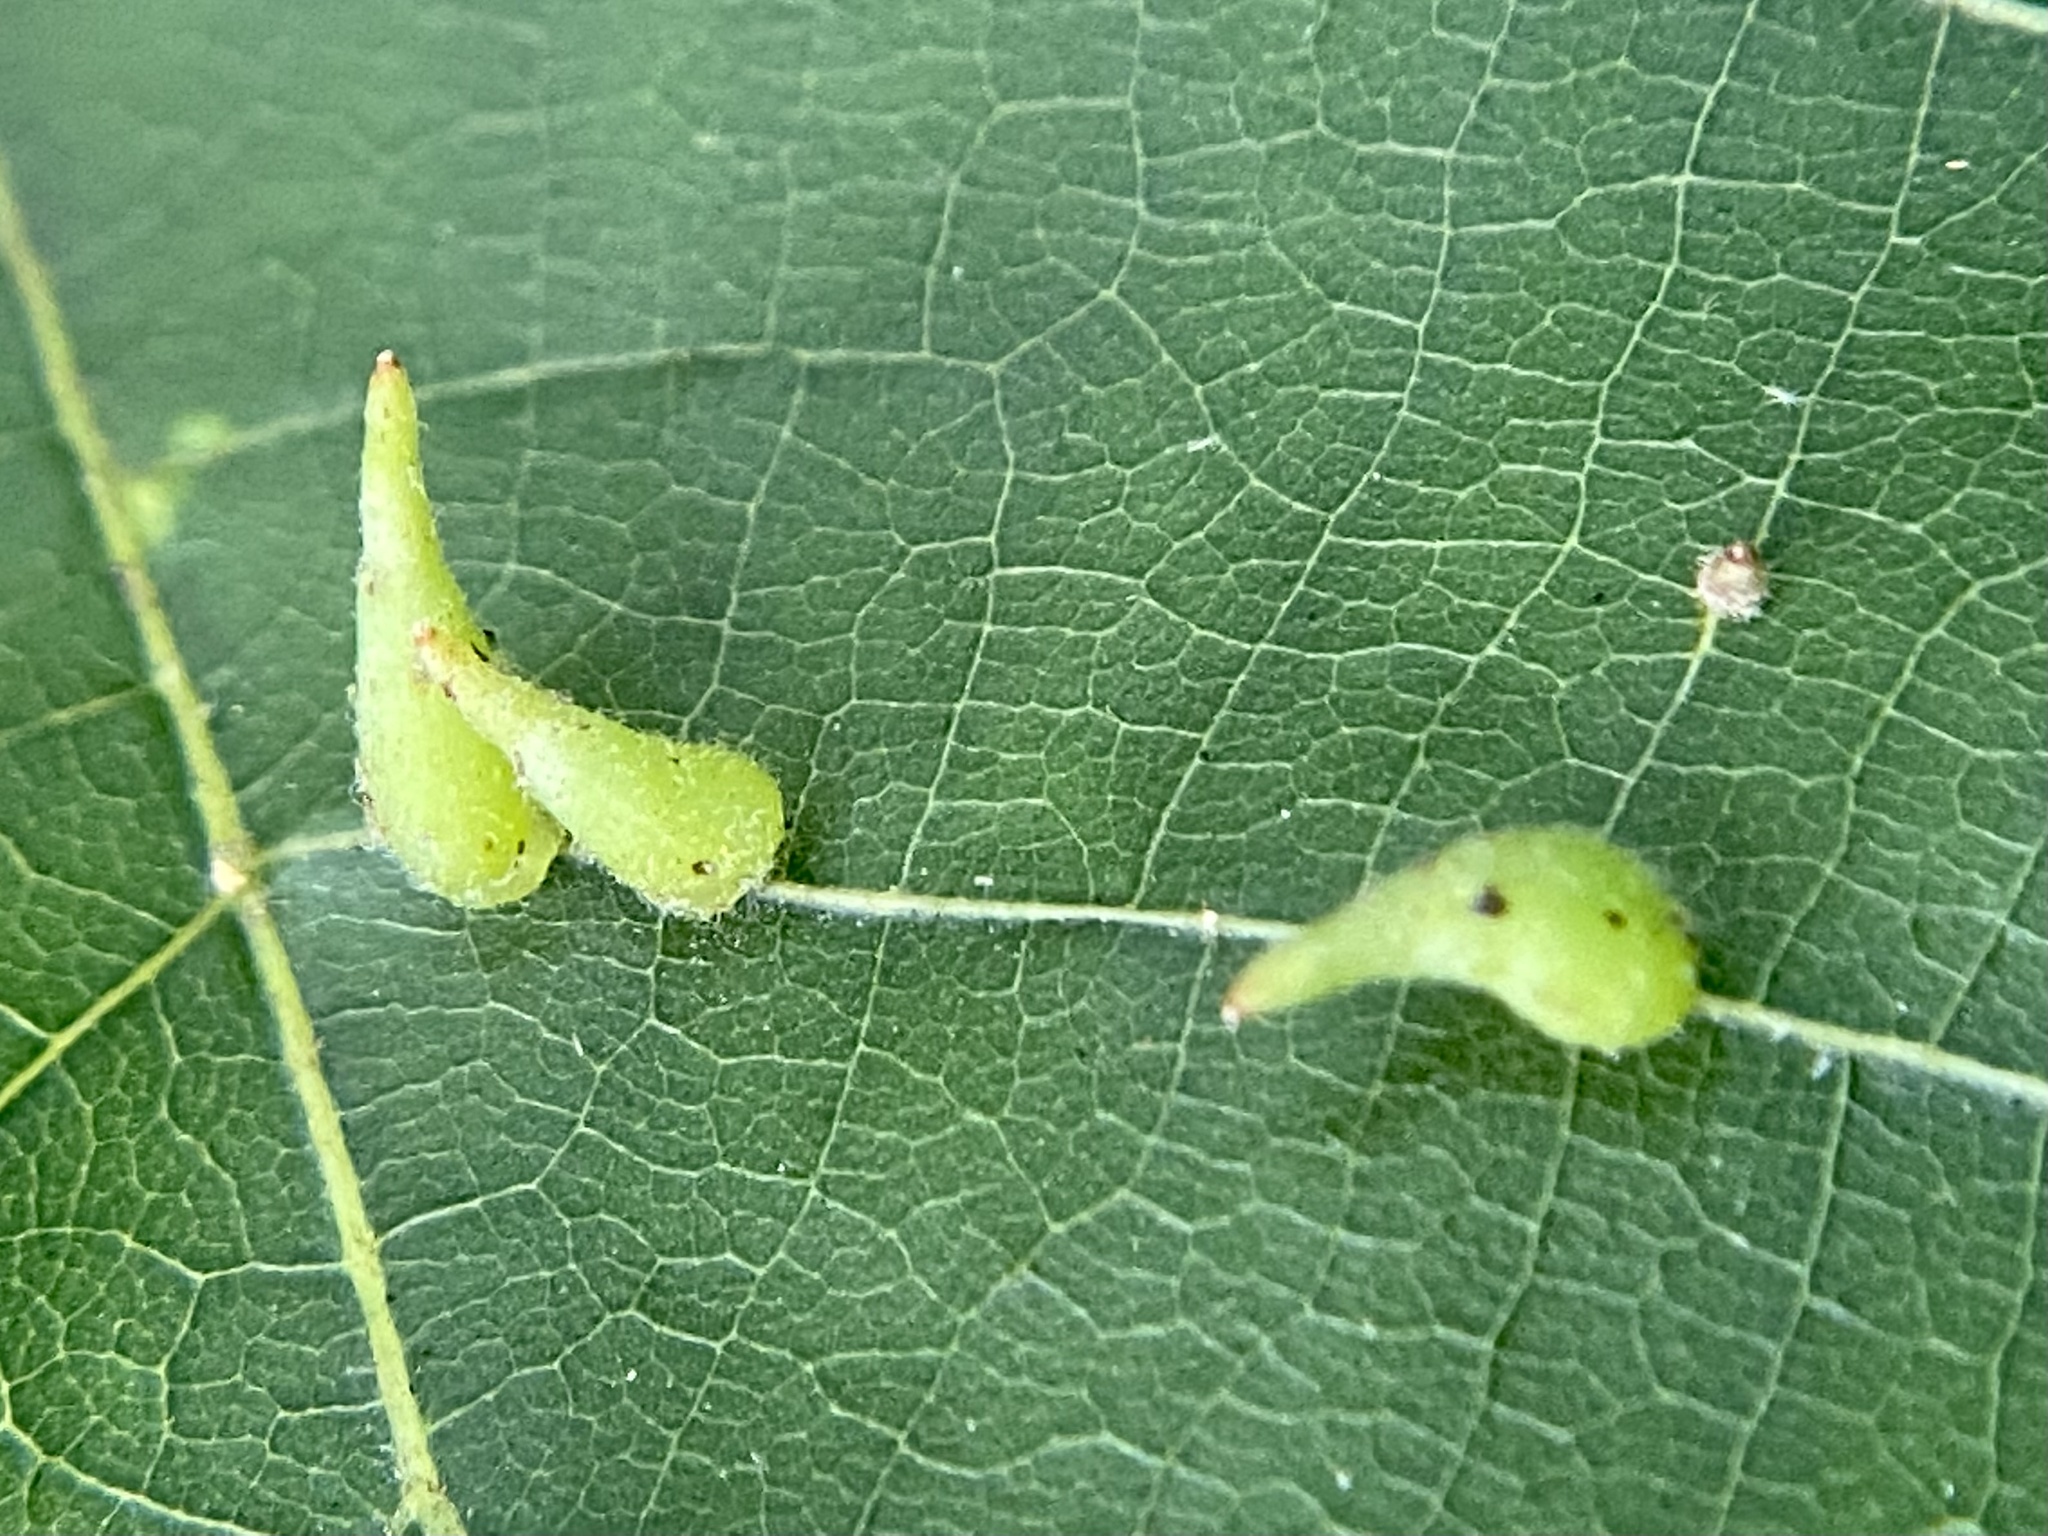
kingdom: Animalia
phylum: Arthropoda
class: Insecta
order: Diptera
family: Cecidomyiidae
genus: Caryomyia
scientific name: Caryomyia spinulosa
